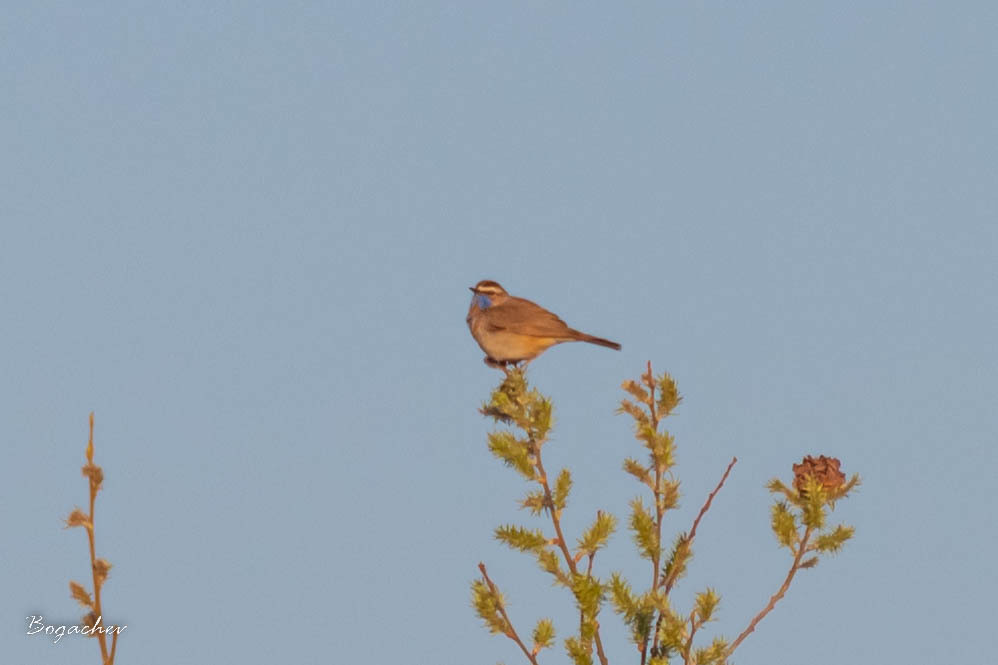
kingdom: Animalia
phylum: Chordata
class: Aves
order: Passeriformes
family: Muscicapidae
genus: Luscinia
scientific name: Luscinia svecica
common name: Bluethroat
